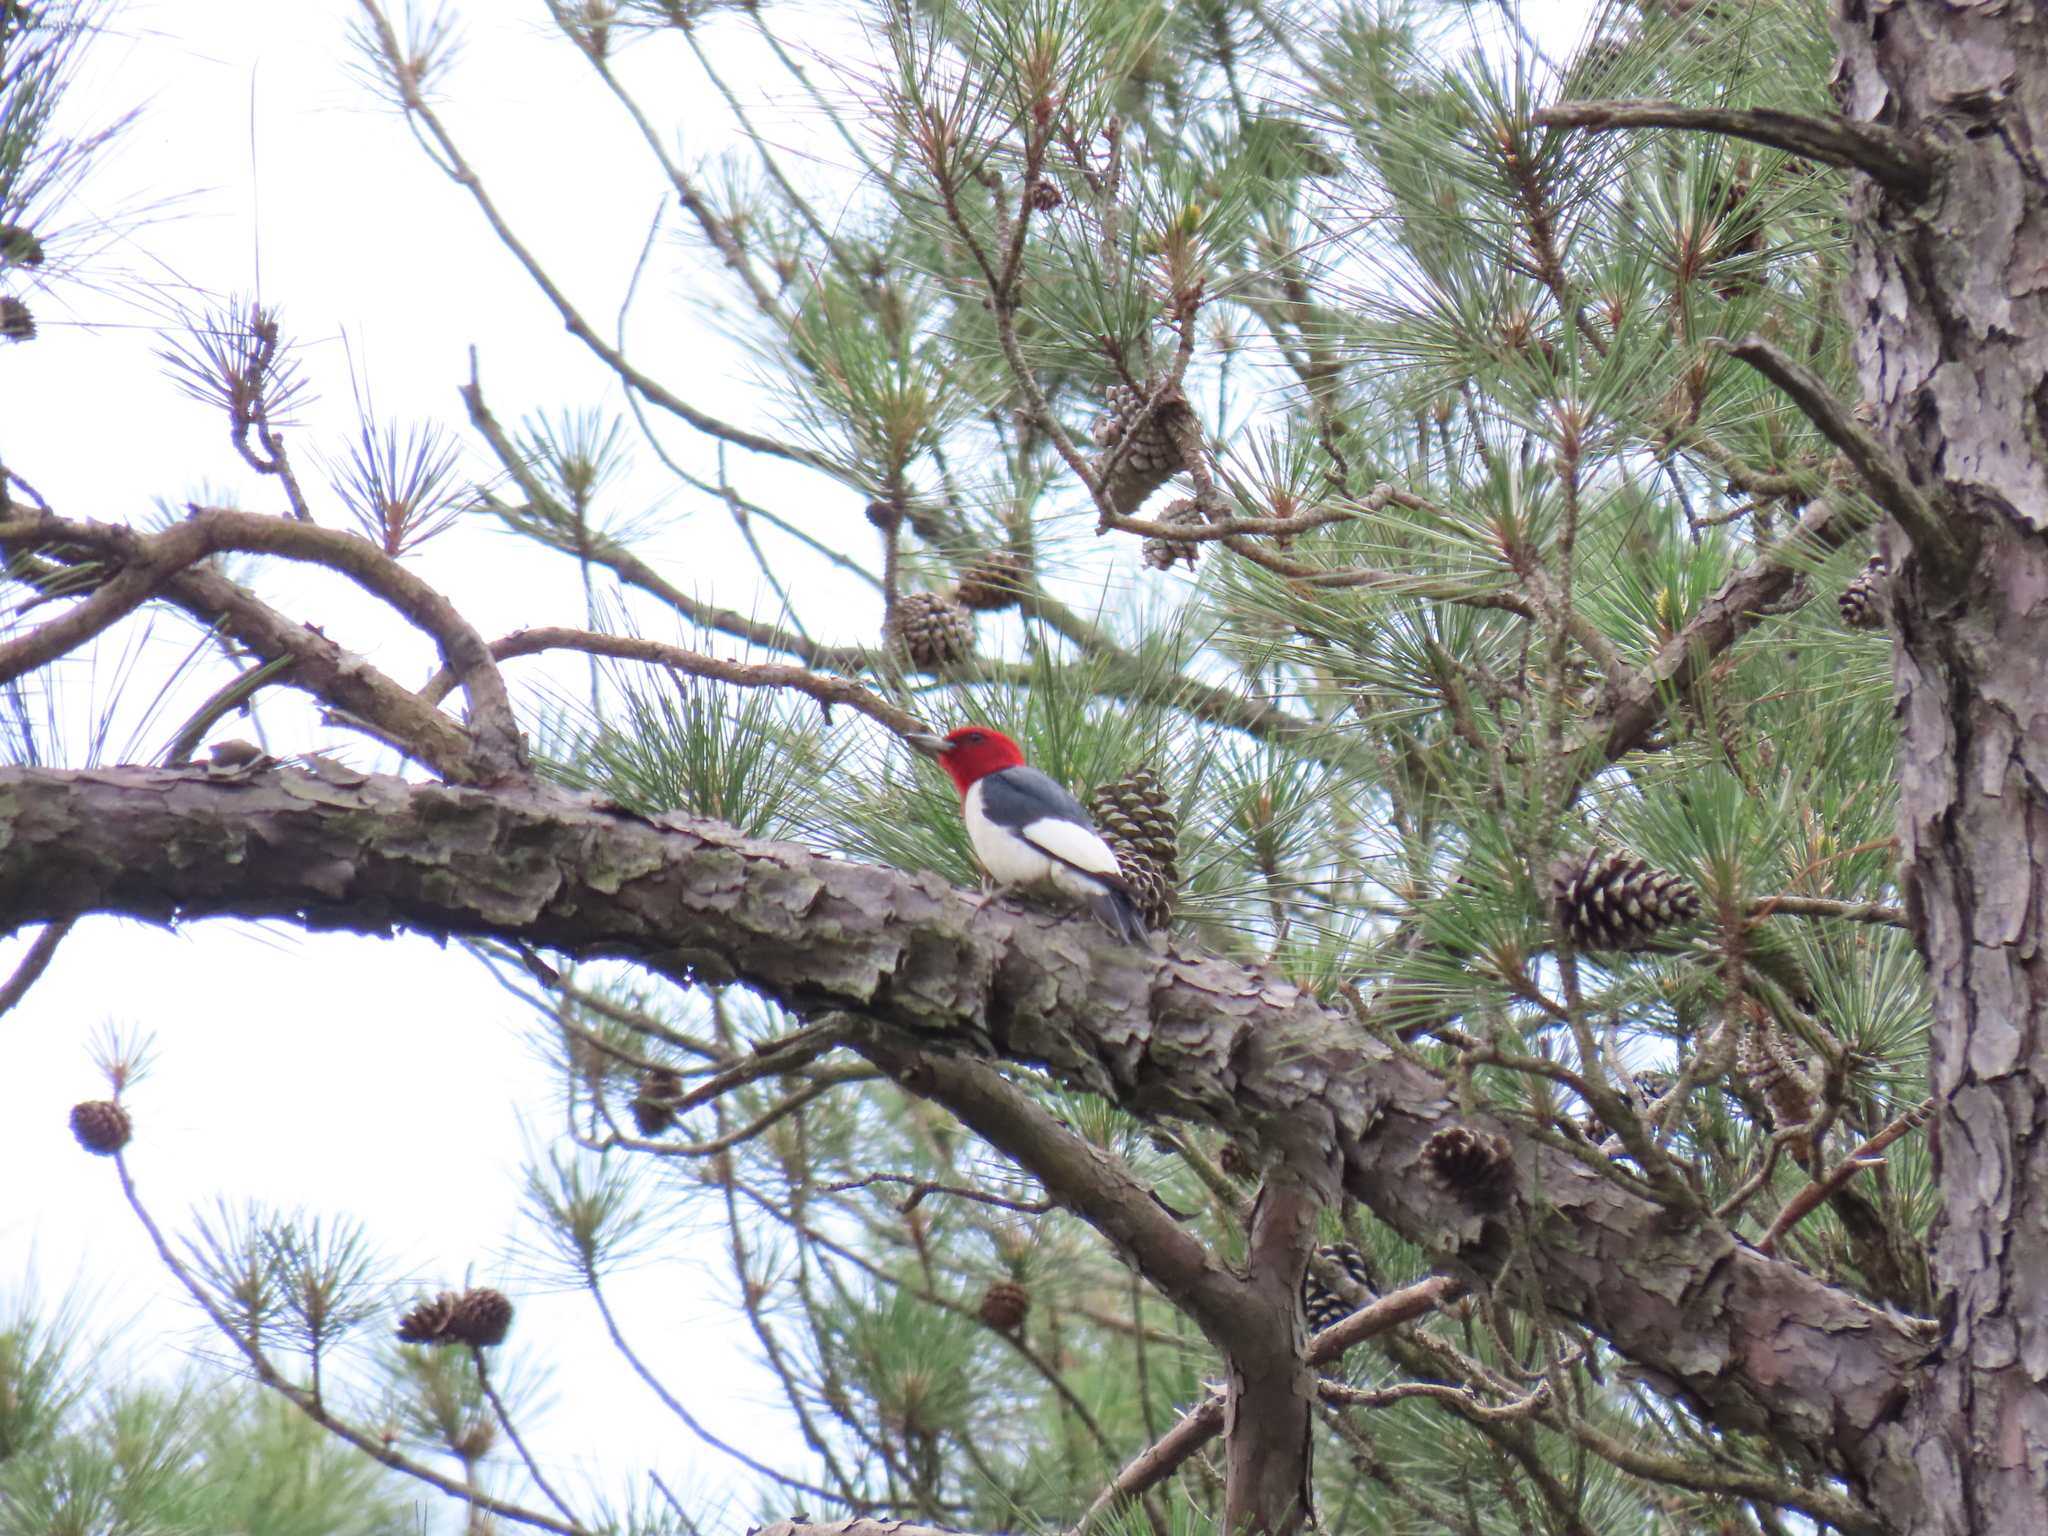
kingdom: Animalia
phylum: Chordata
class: Aves
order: Piciformes
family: Picidae
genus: Melanerpes
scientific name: Melanerpes erythrocephalus
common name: Red-headed woodpecker
